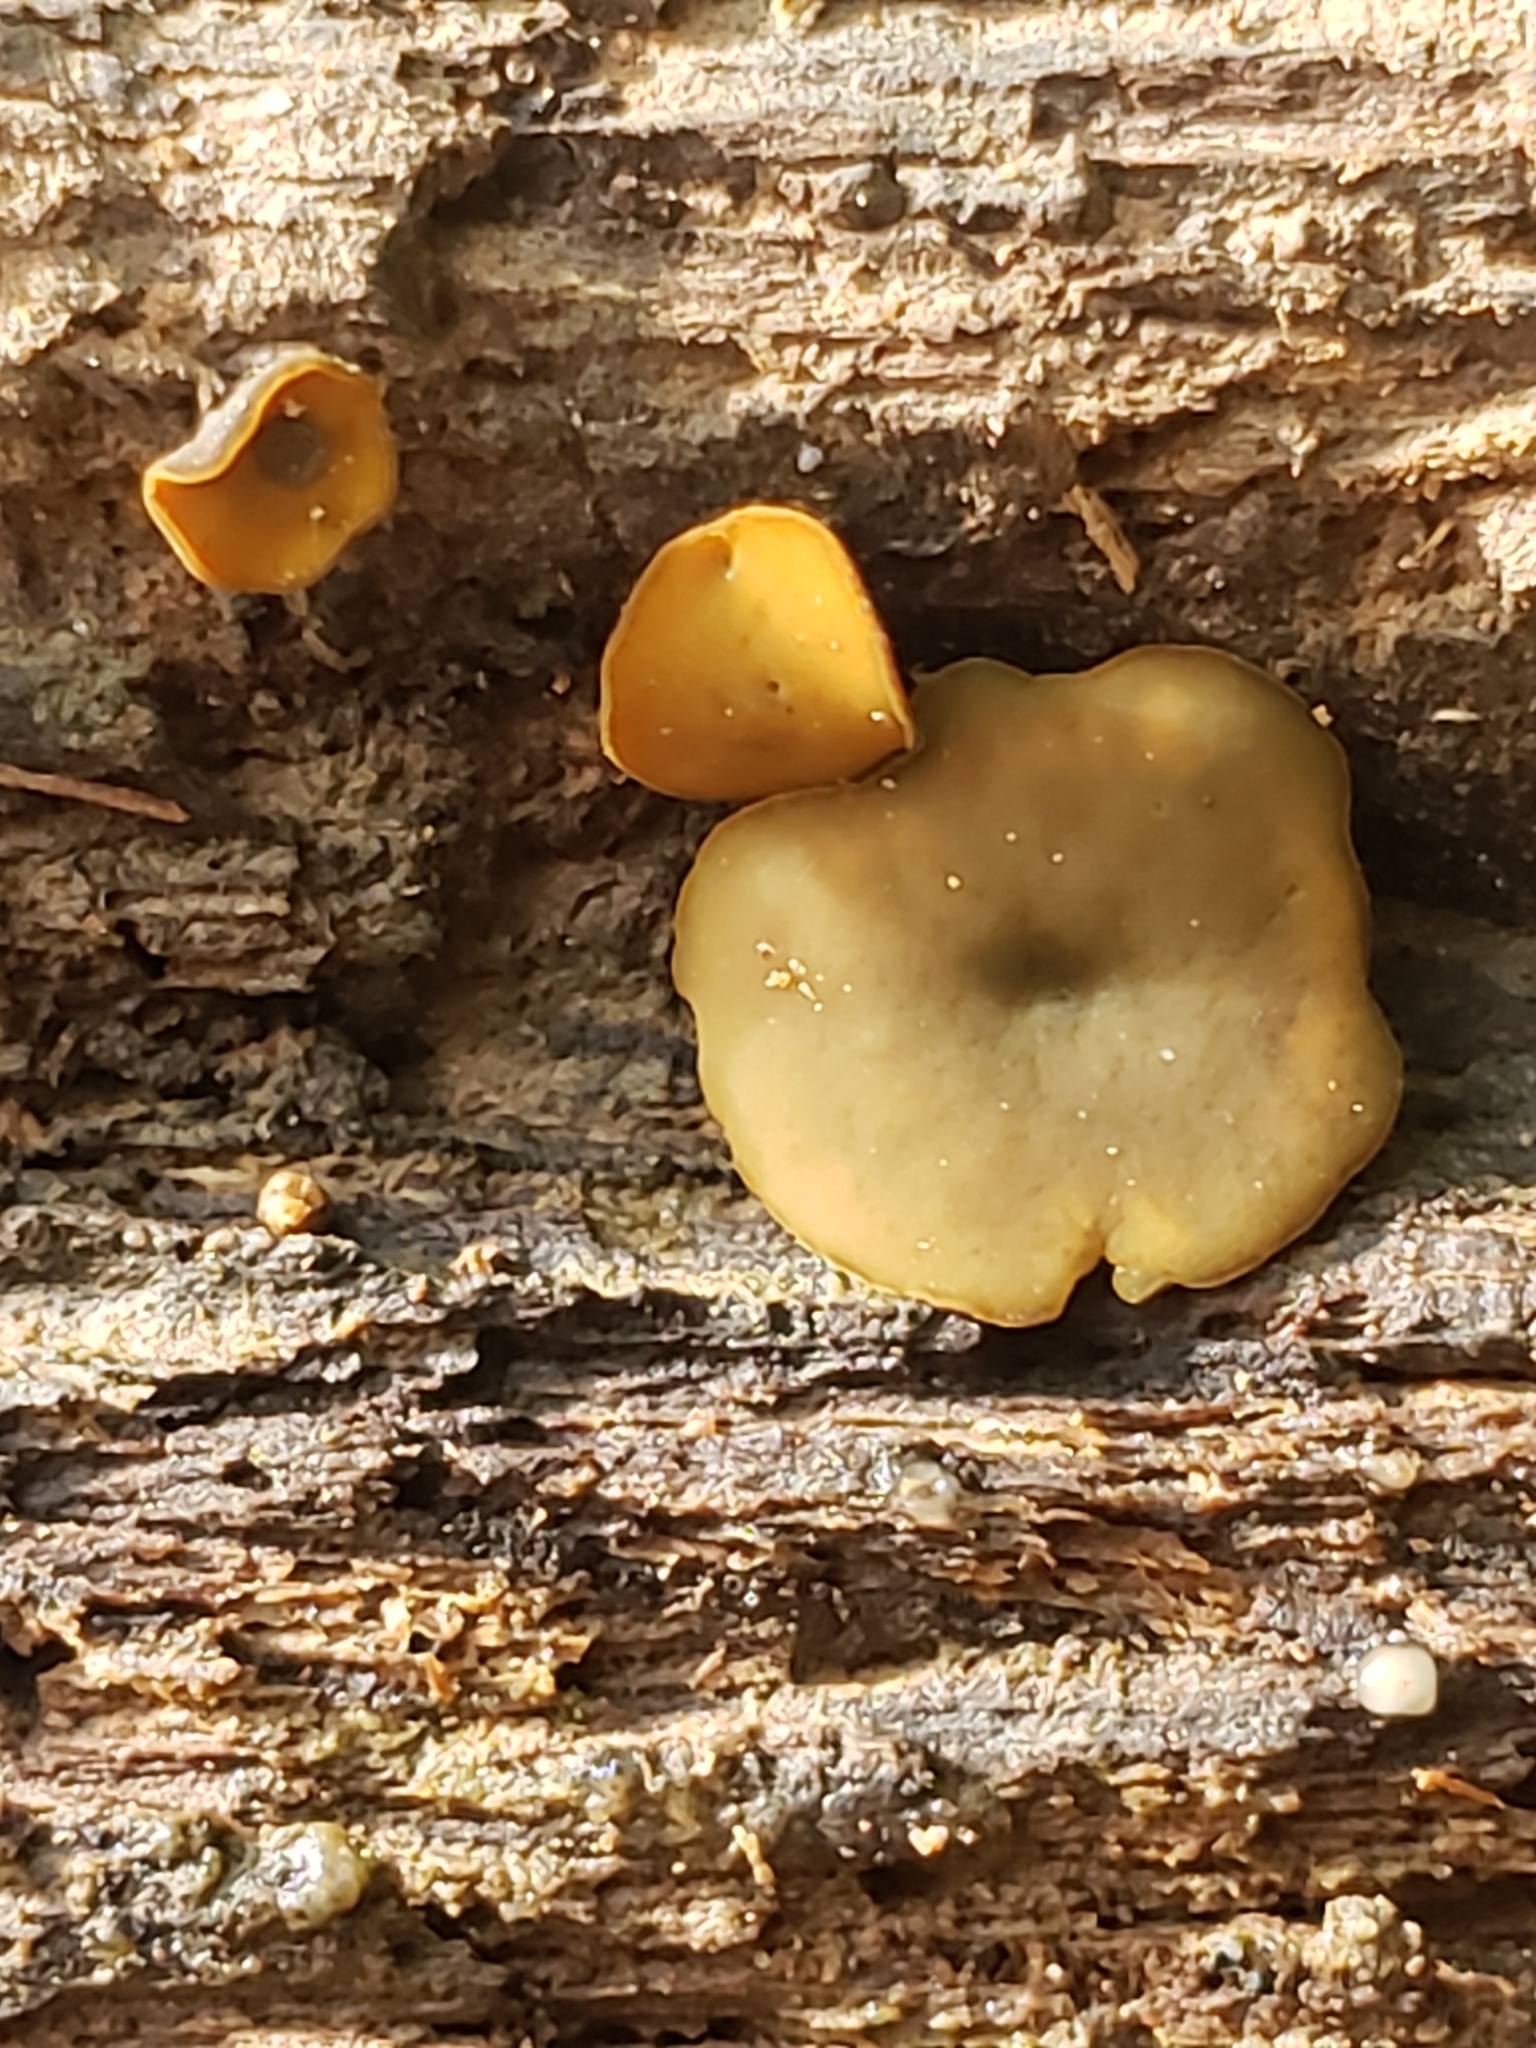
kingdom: Fungi
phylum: Ascomycota
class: Leotiomycetes
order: Helotiales
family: Cenangiaceae
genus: Chlorencoelia
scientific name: Chlorencoelia
